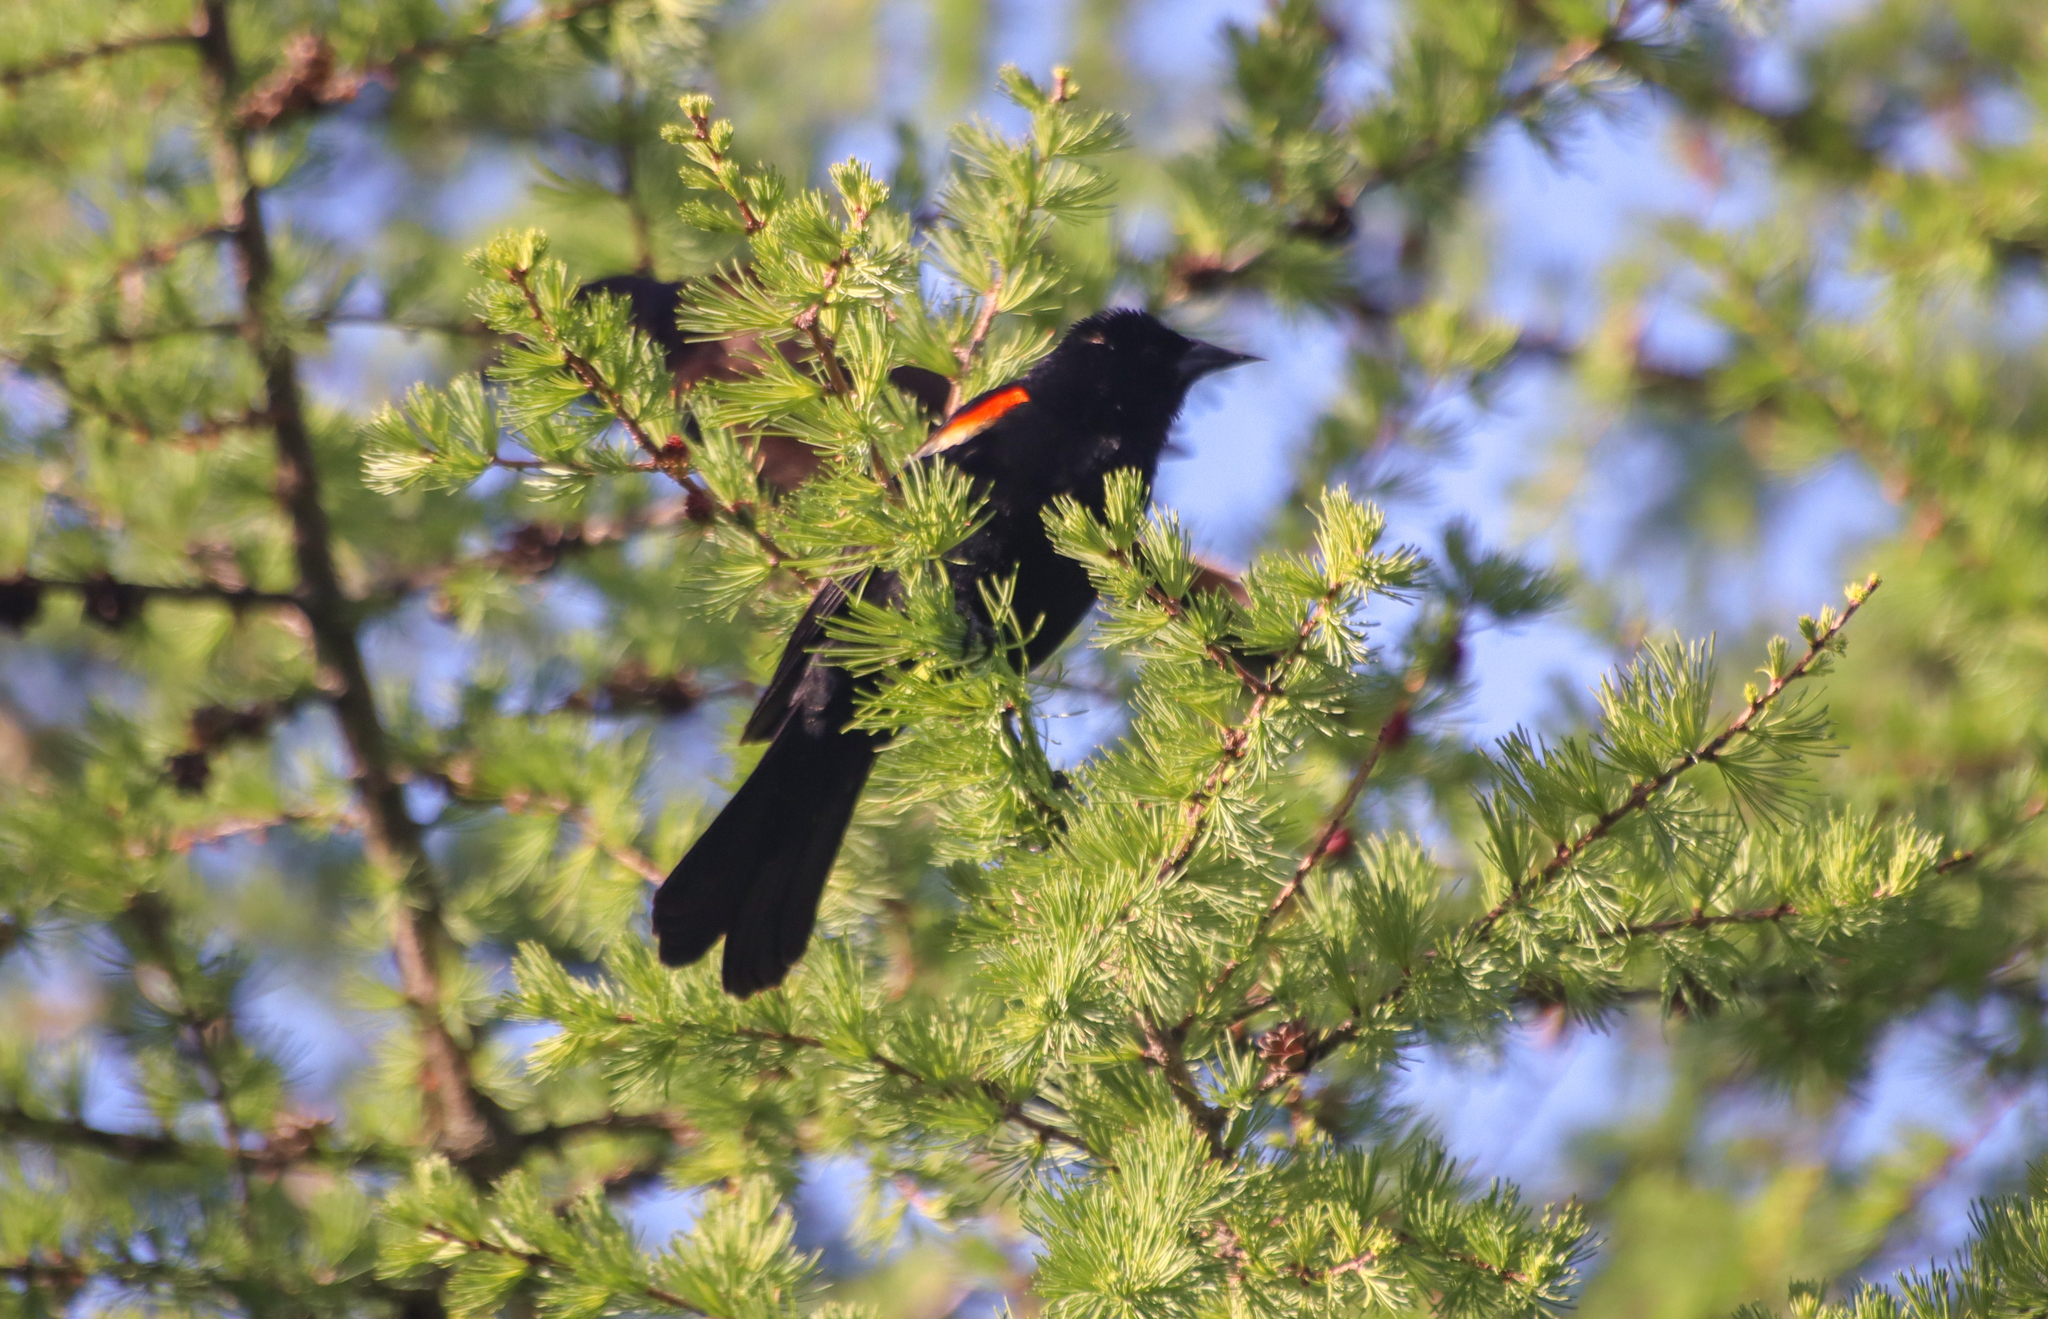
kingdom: Animalia
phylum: Chordata
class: Aves
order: Passeriformes
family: Icteridae
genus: Agelaius
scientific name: Agelaius phoeniceus
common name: Red-winged blackbird
